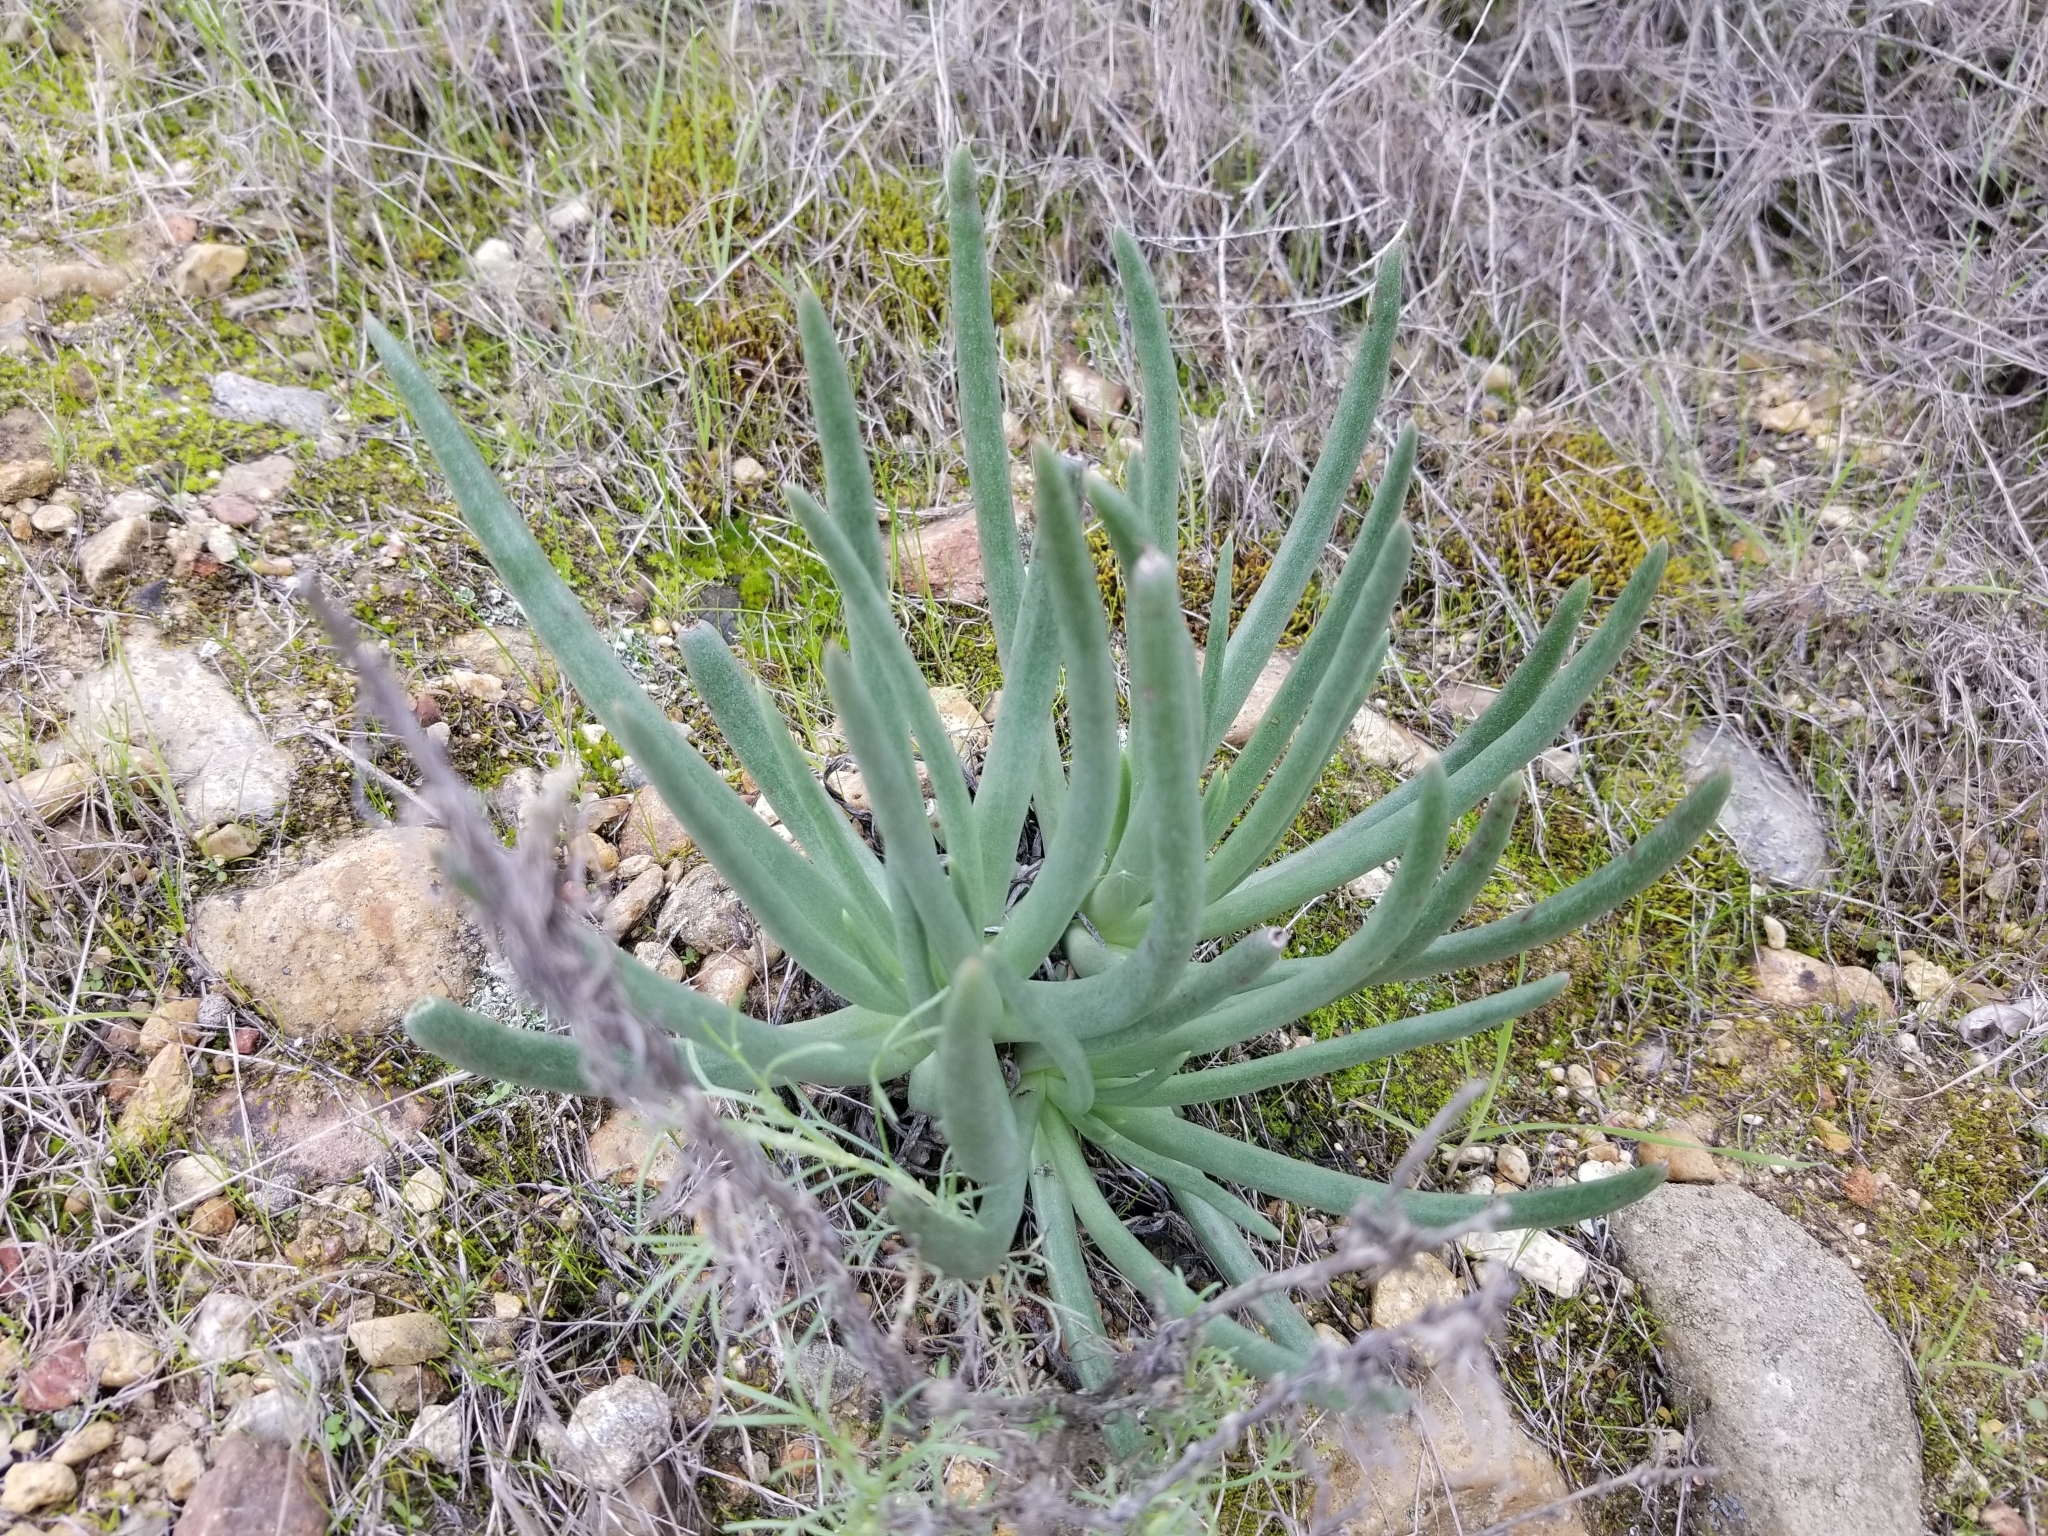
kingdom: Plantae
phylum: Tracheophyta
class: Magnoliopsida
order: Saxifragales
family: Crassulaceae
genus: Dudleya
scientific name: Dudleya edulis
